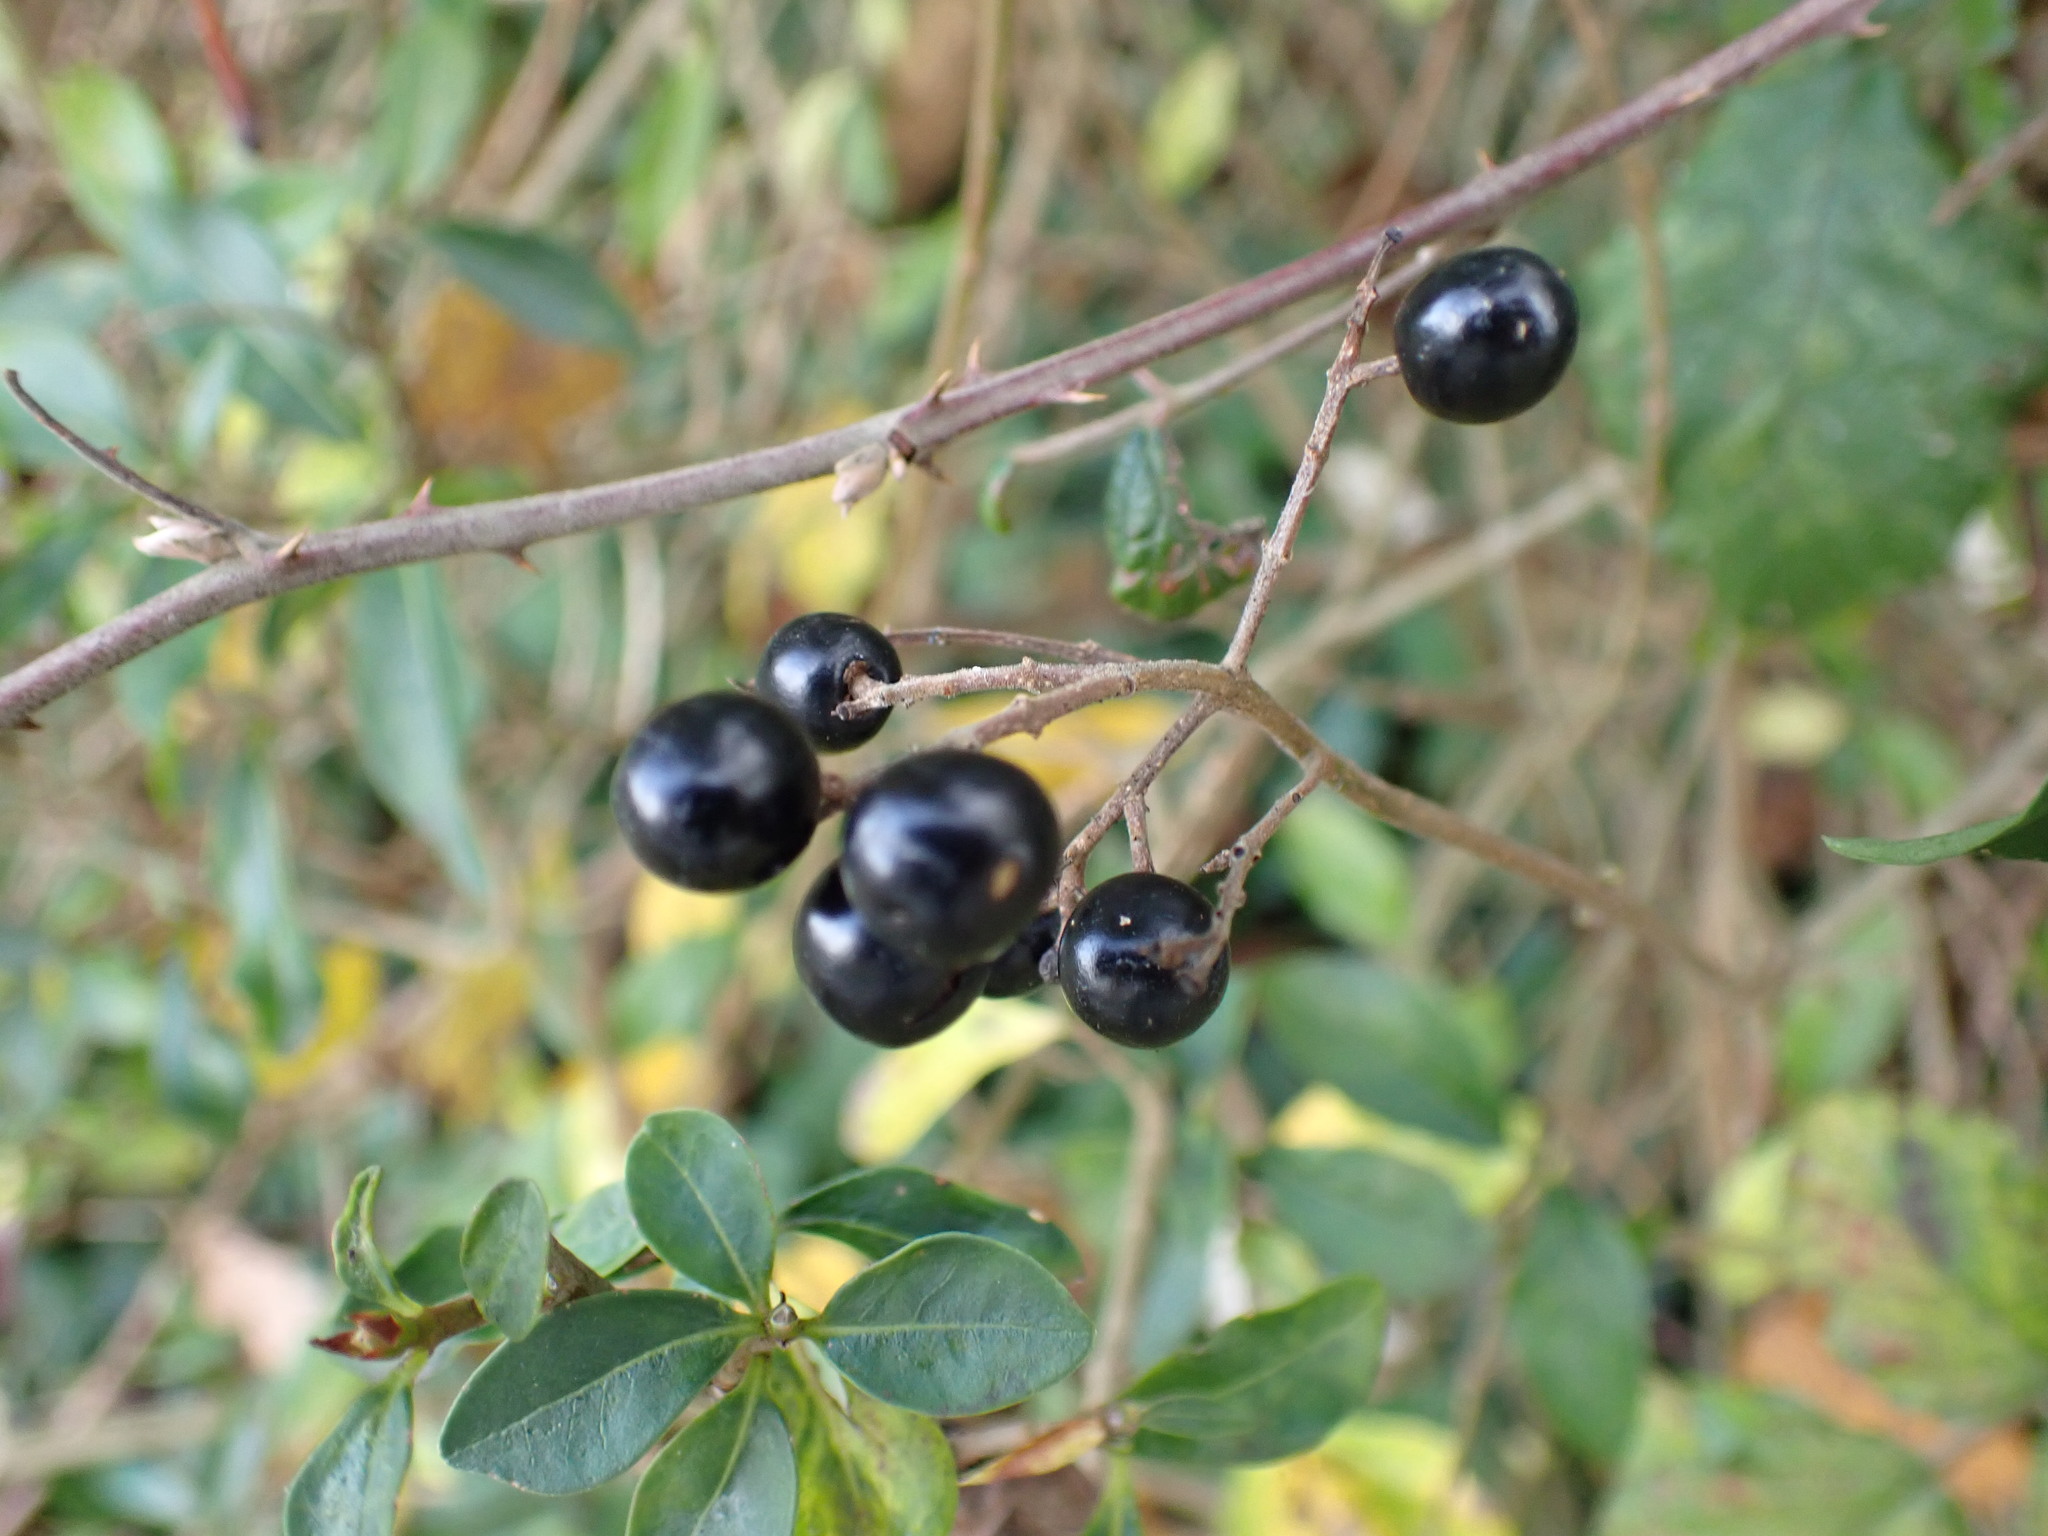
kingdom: Plantae
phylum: Tracheophyta
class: Magnoliopsida
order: Lamiales
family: Oleaceae
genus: Ligustrum
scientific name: Ligustrum vulgare
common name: Wild privet
